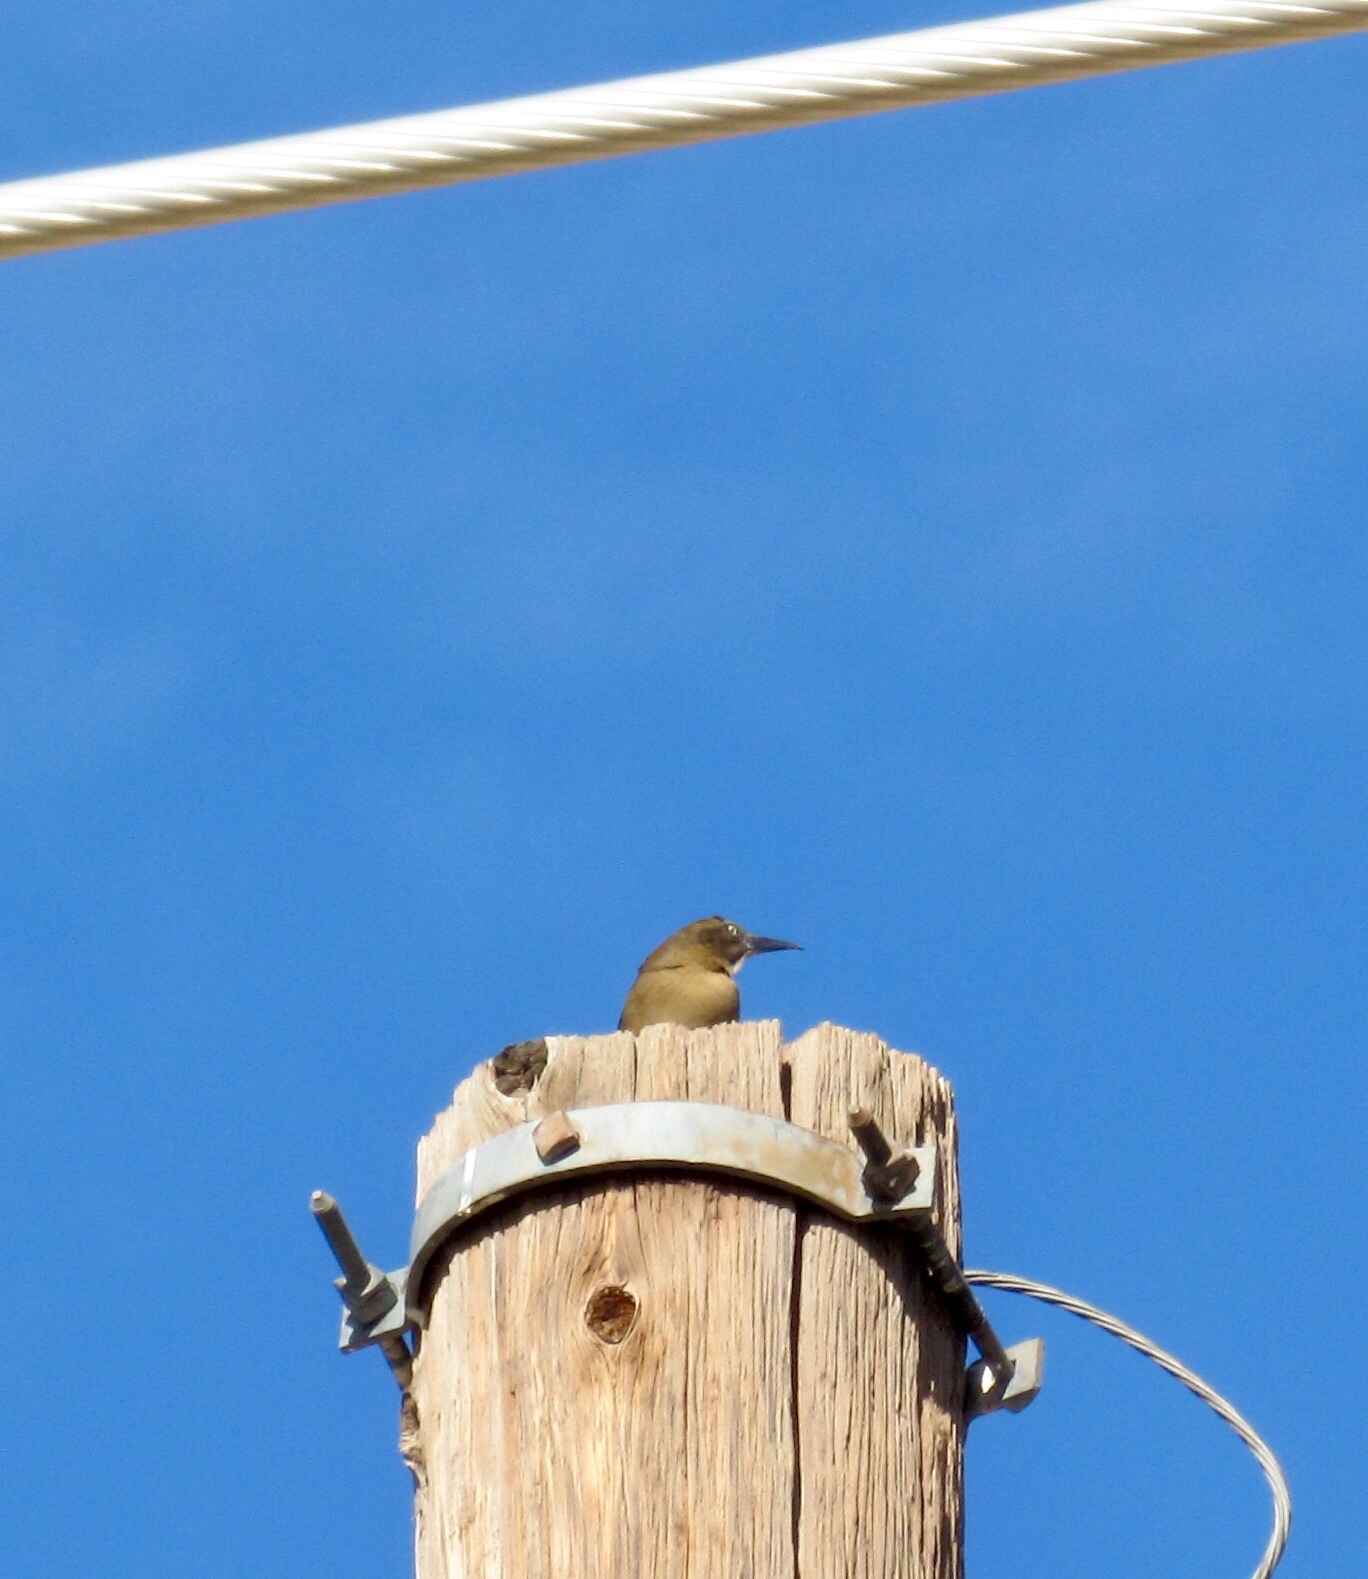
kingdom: Animalia
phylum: Chordata
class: Aves
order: Passeriformes
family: Icteridae
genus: Quiscalus
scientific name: Quiscalus mexicanus
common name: Great-tailed grackle
